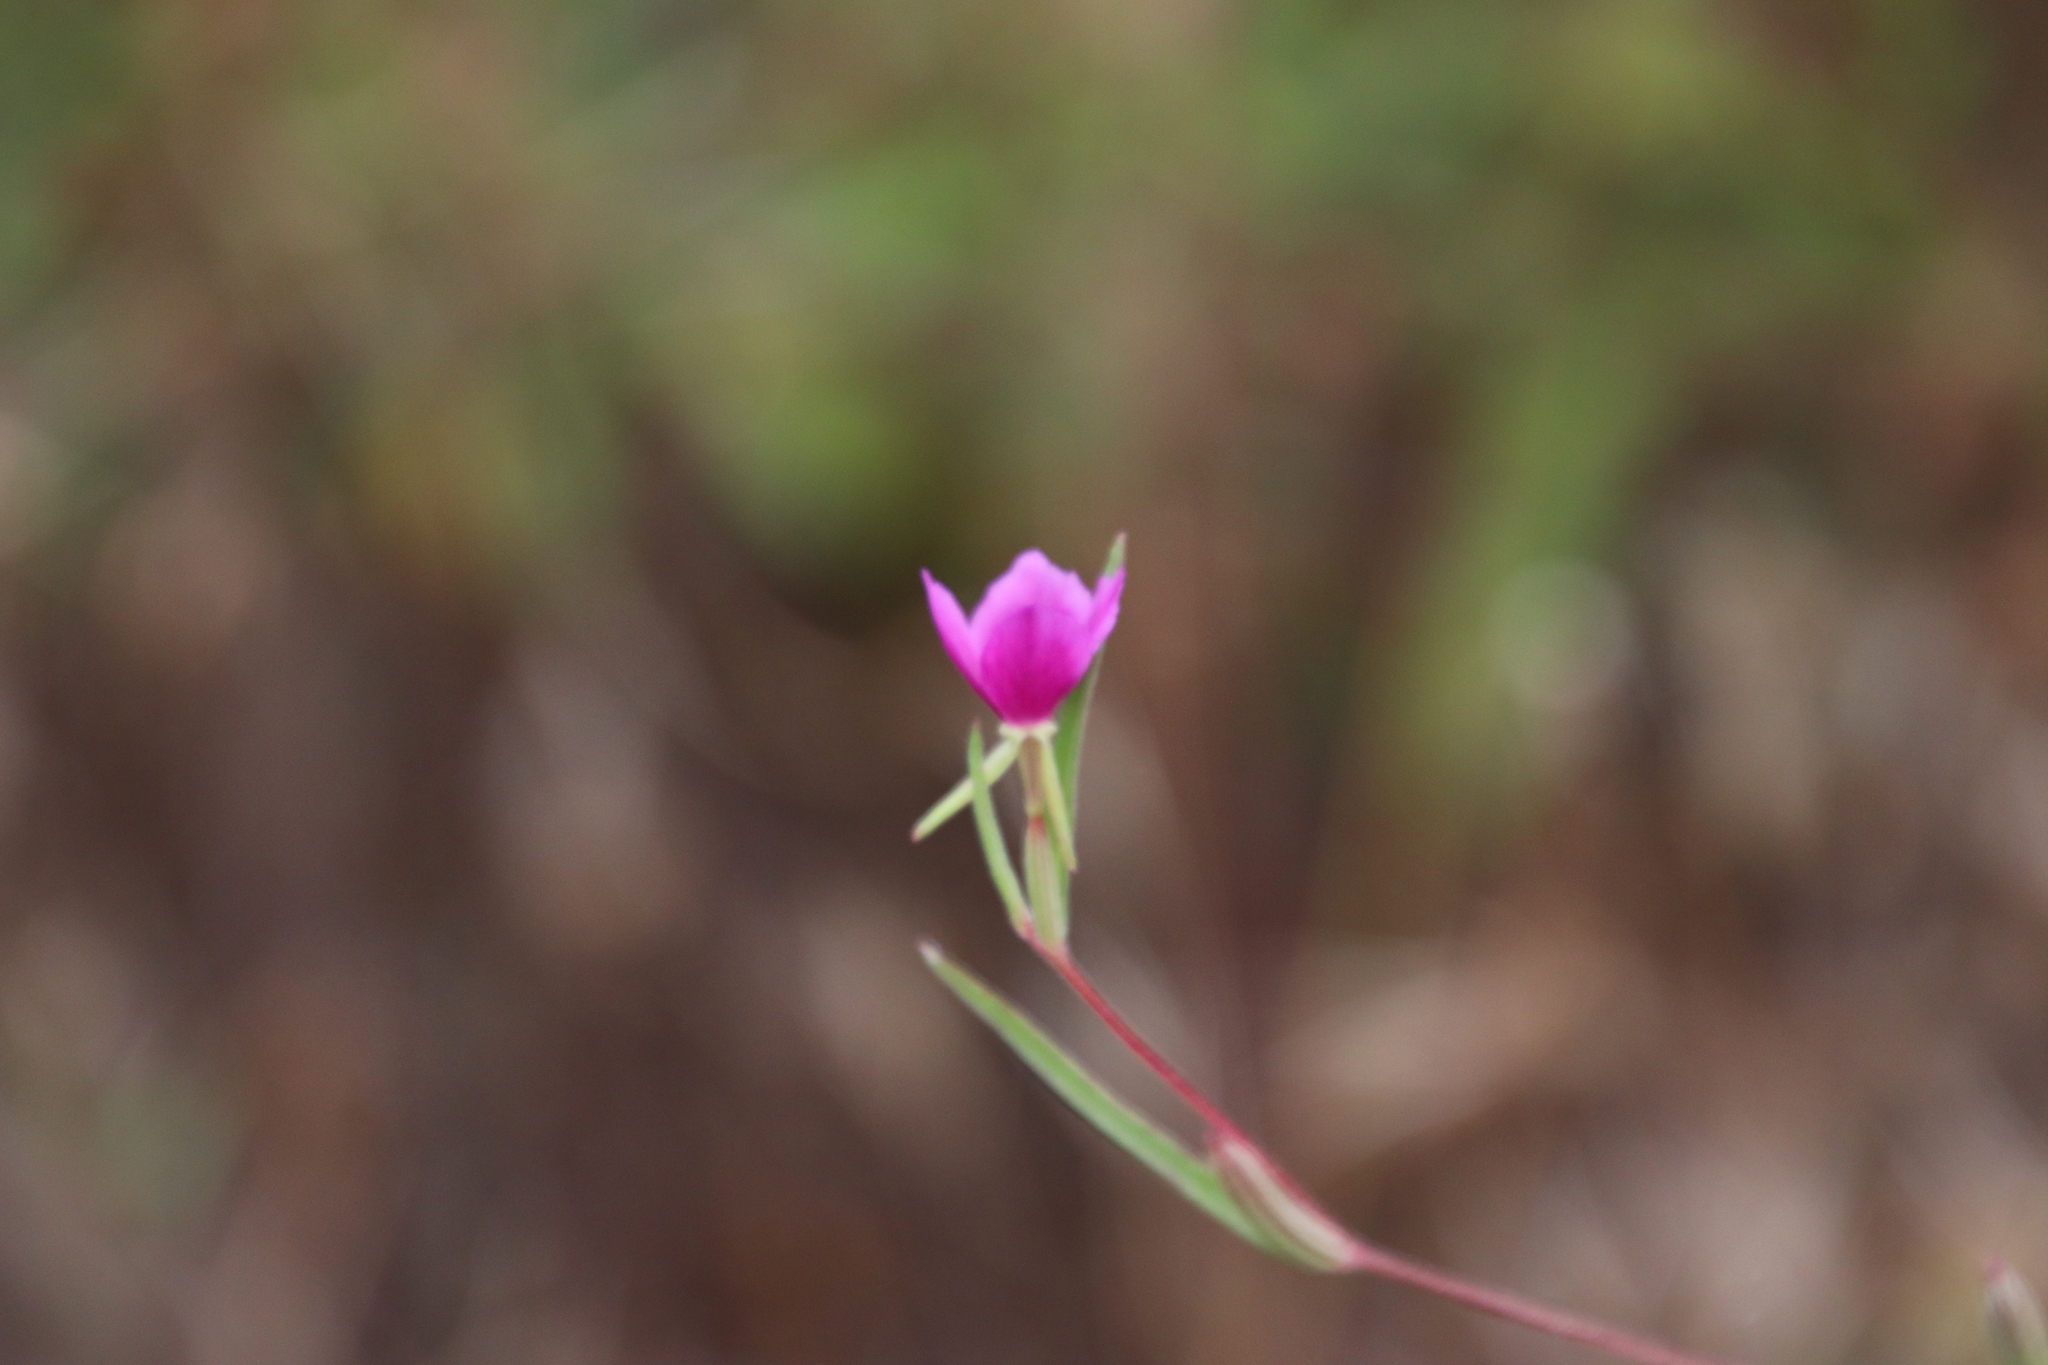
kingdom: Plantae
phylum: Tracheophyta
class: Magnoliopsida
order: Myrtales
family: Onagraceae
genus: Clarkia
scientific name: Clarkia purpurea
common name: Purple clarkia
